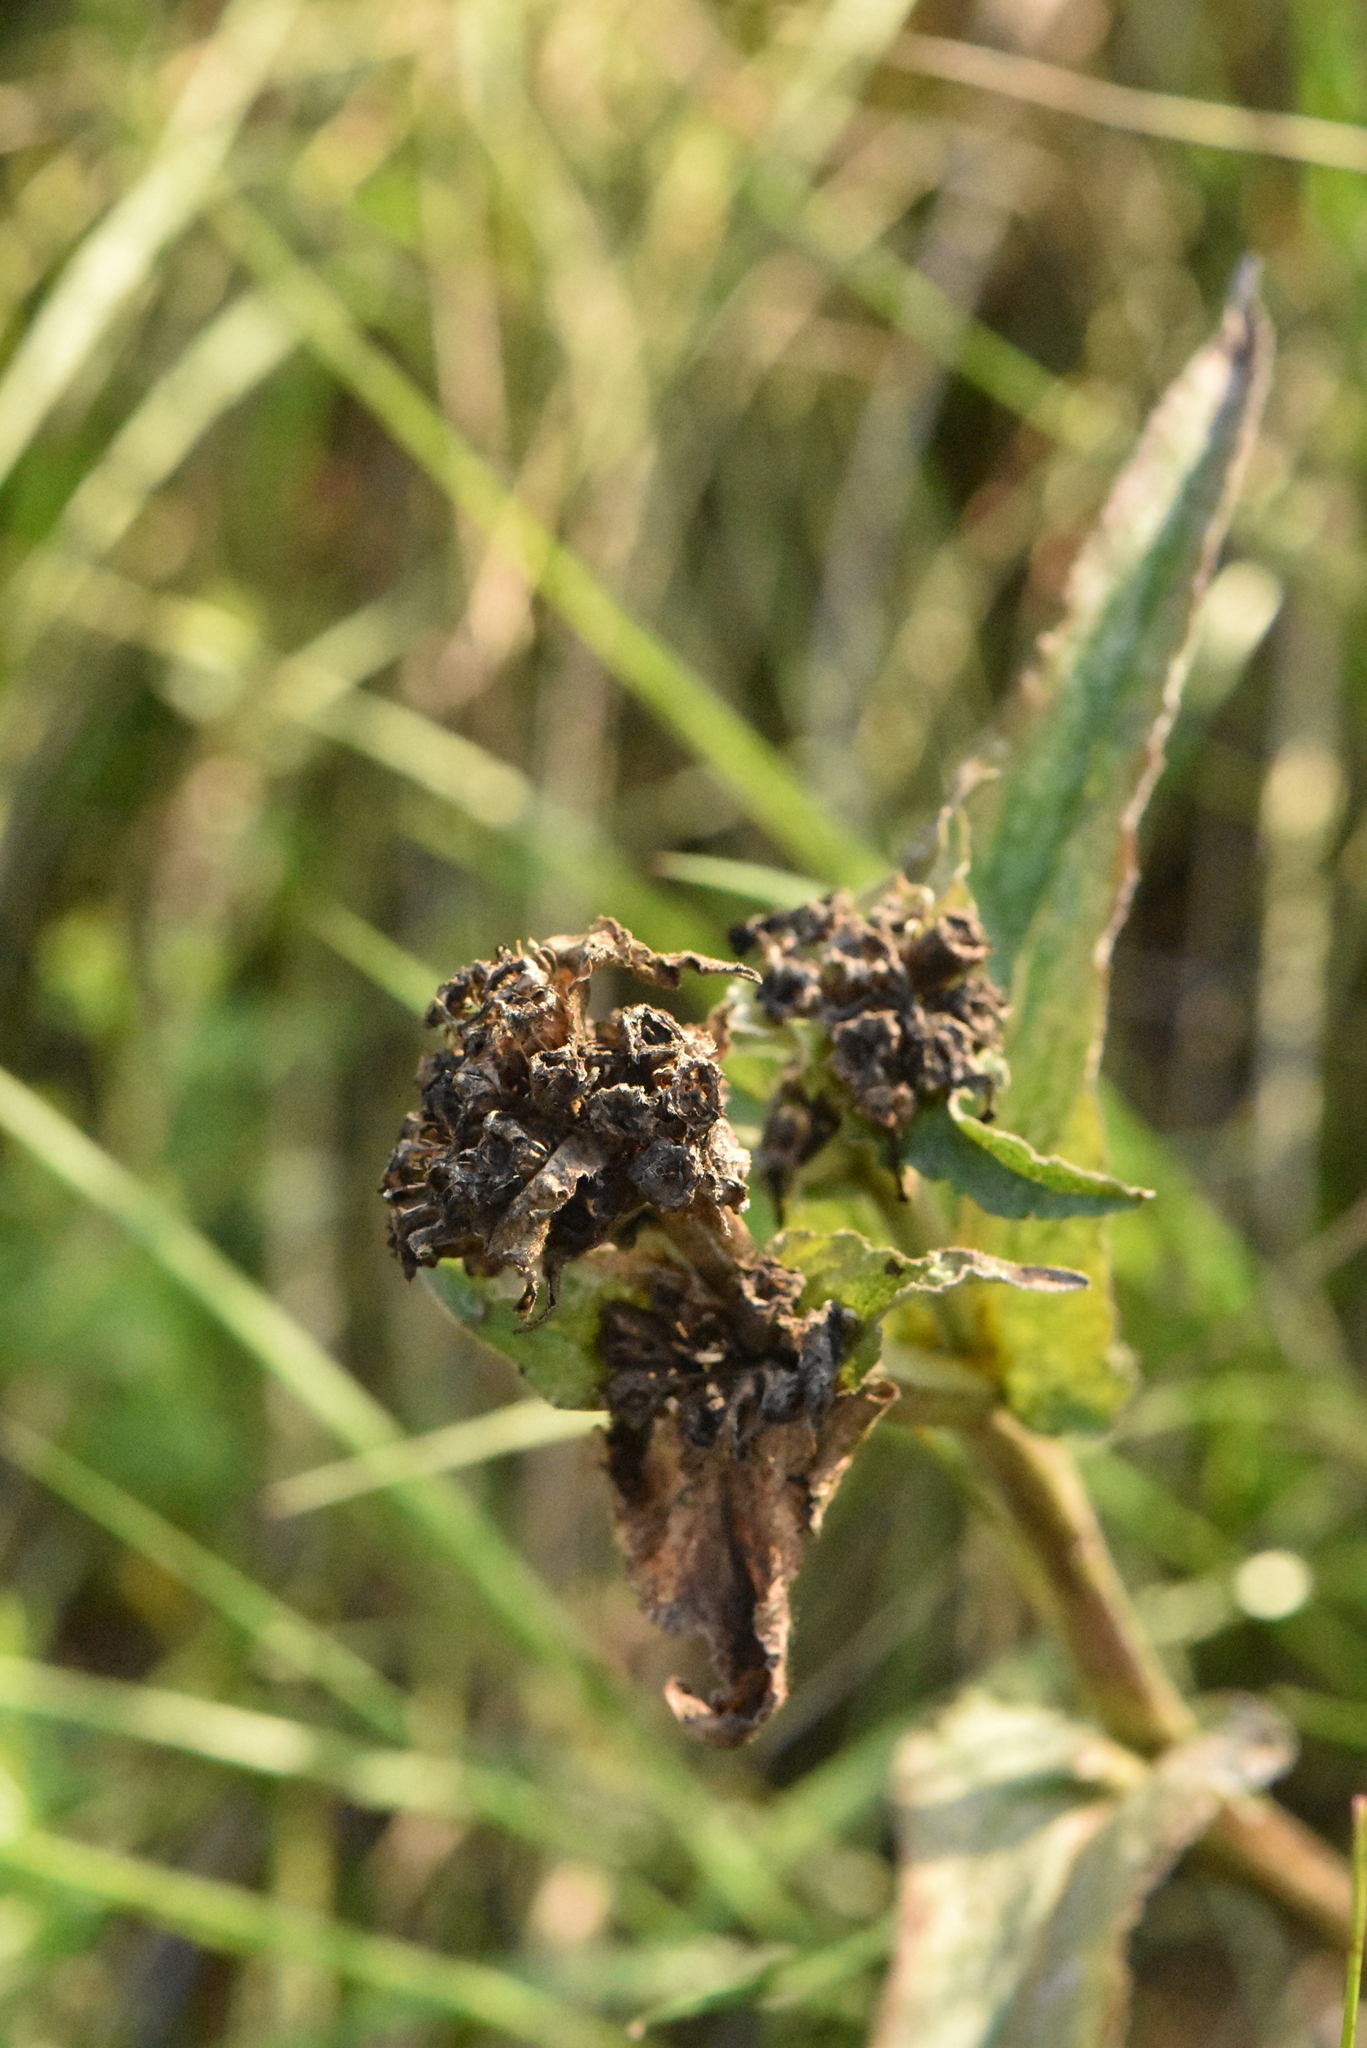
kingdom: Plantae
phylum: Tracheophyta
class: Magnoliopsida
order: Asterales
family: Campanulaceae
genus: Campanula
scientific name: Campanula glomerata
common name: Clustered bellflower
